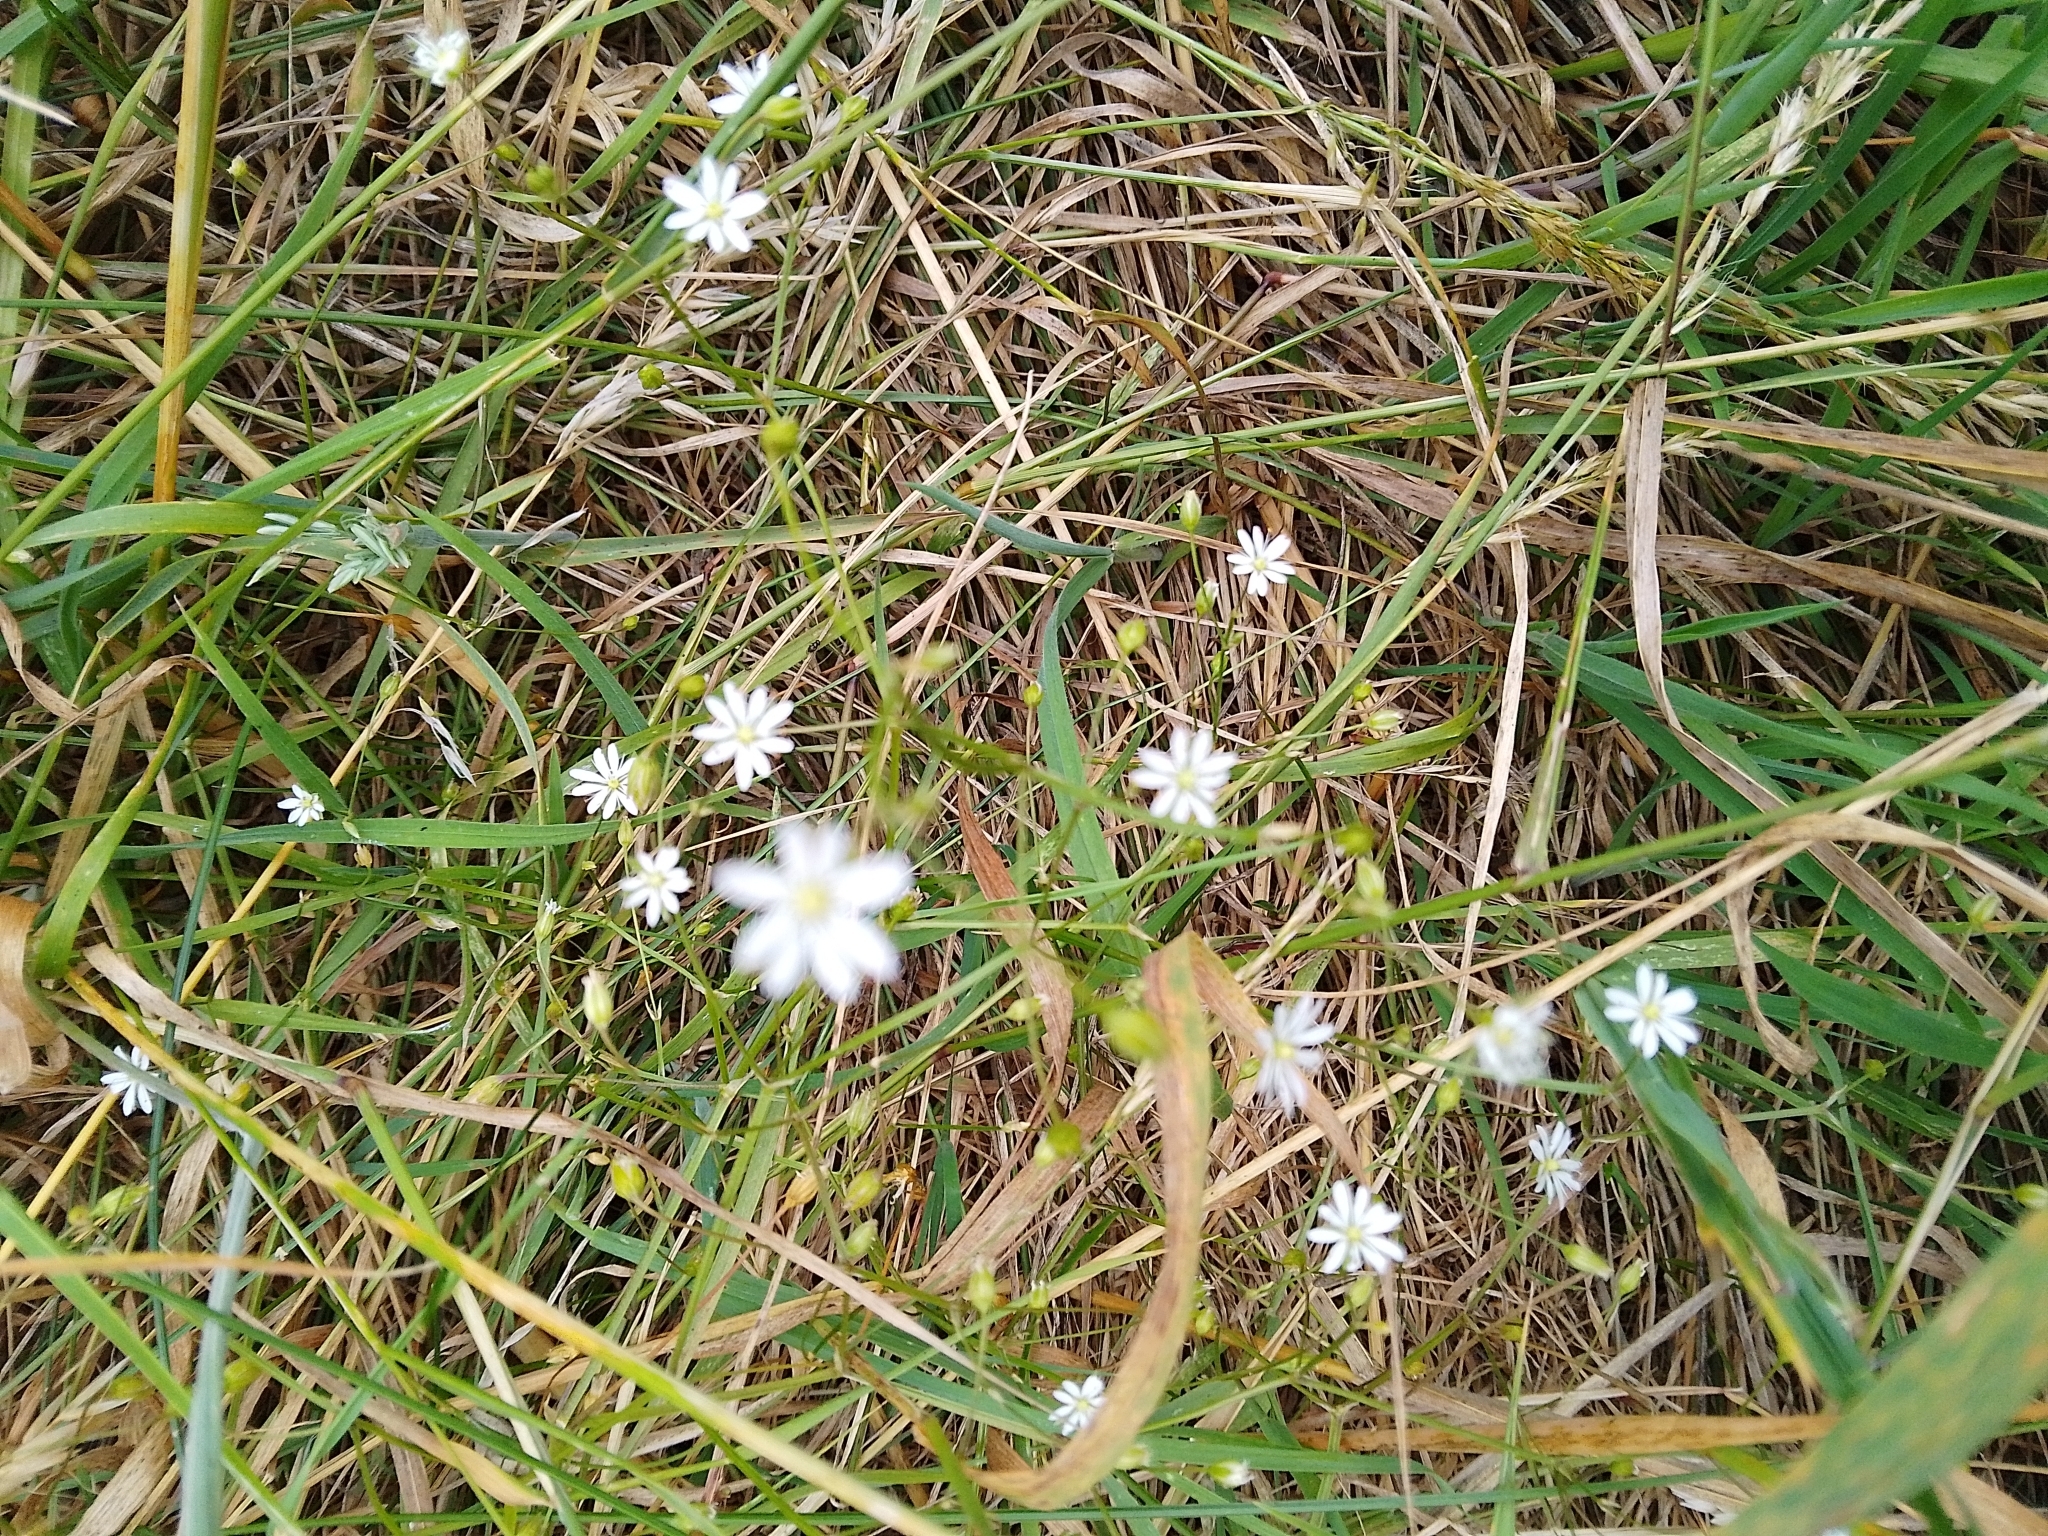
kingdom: Plantae
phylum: Tracheophyta
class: Magnoliopsida
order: Caryophyllales
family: Caryophyllaceae
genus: Stellaria
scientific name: Stellaria graminea
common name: Grass-like starwort
